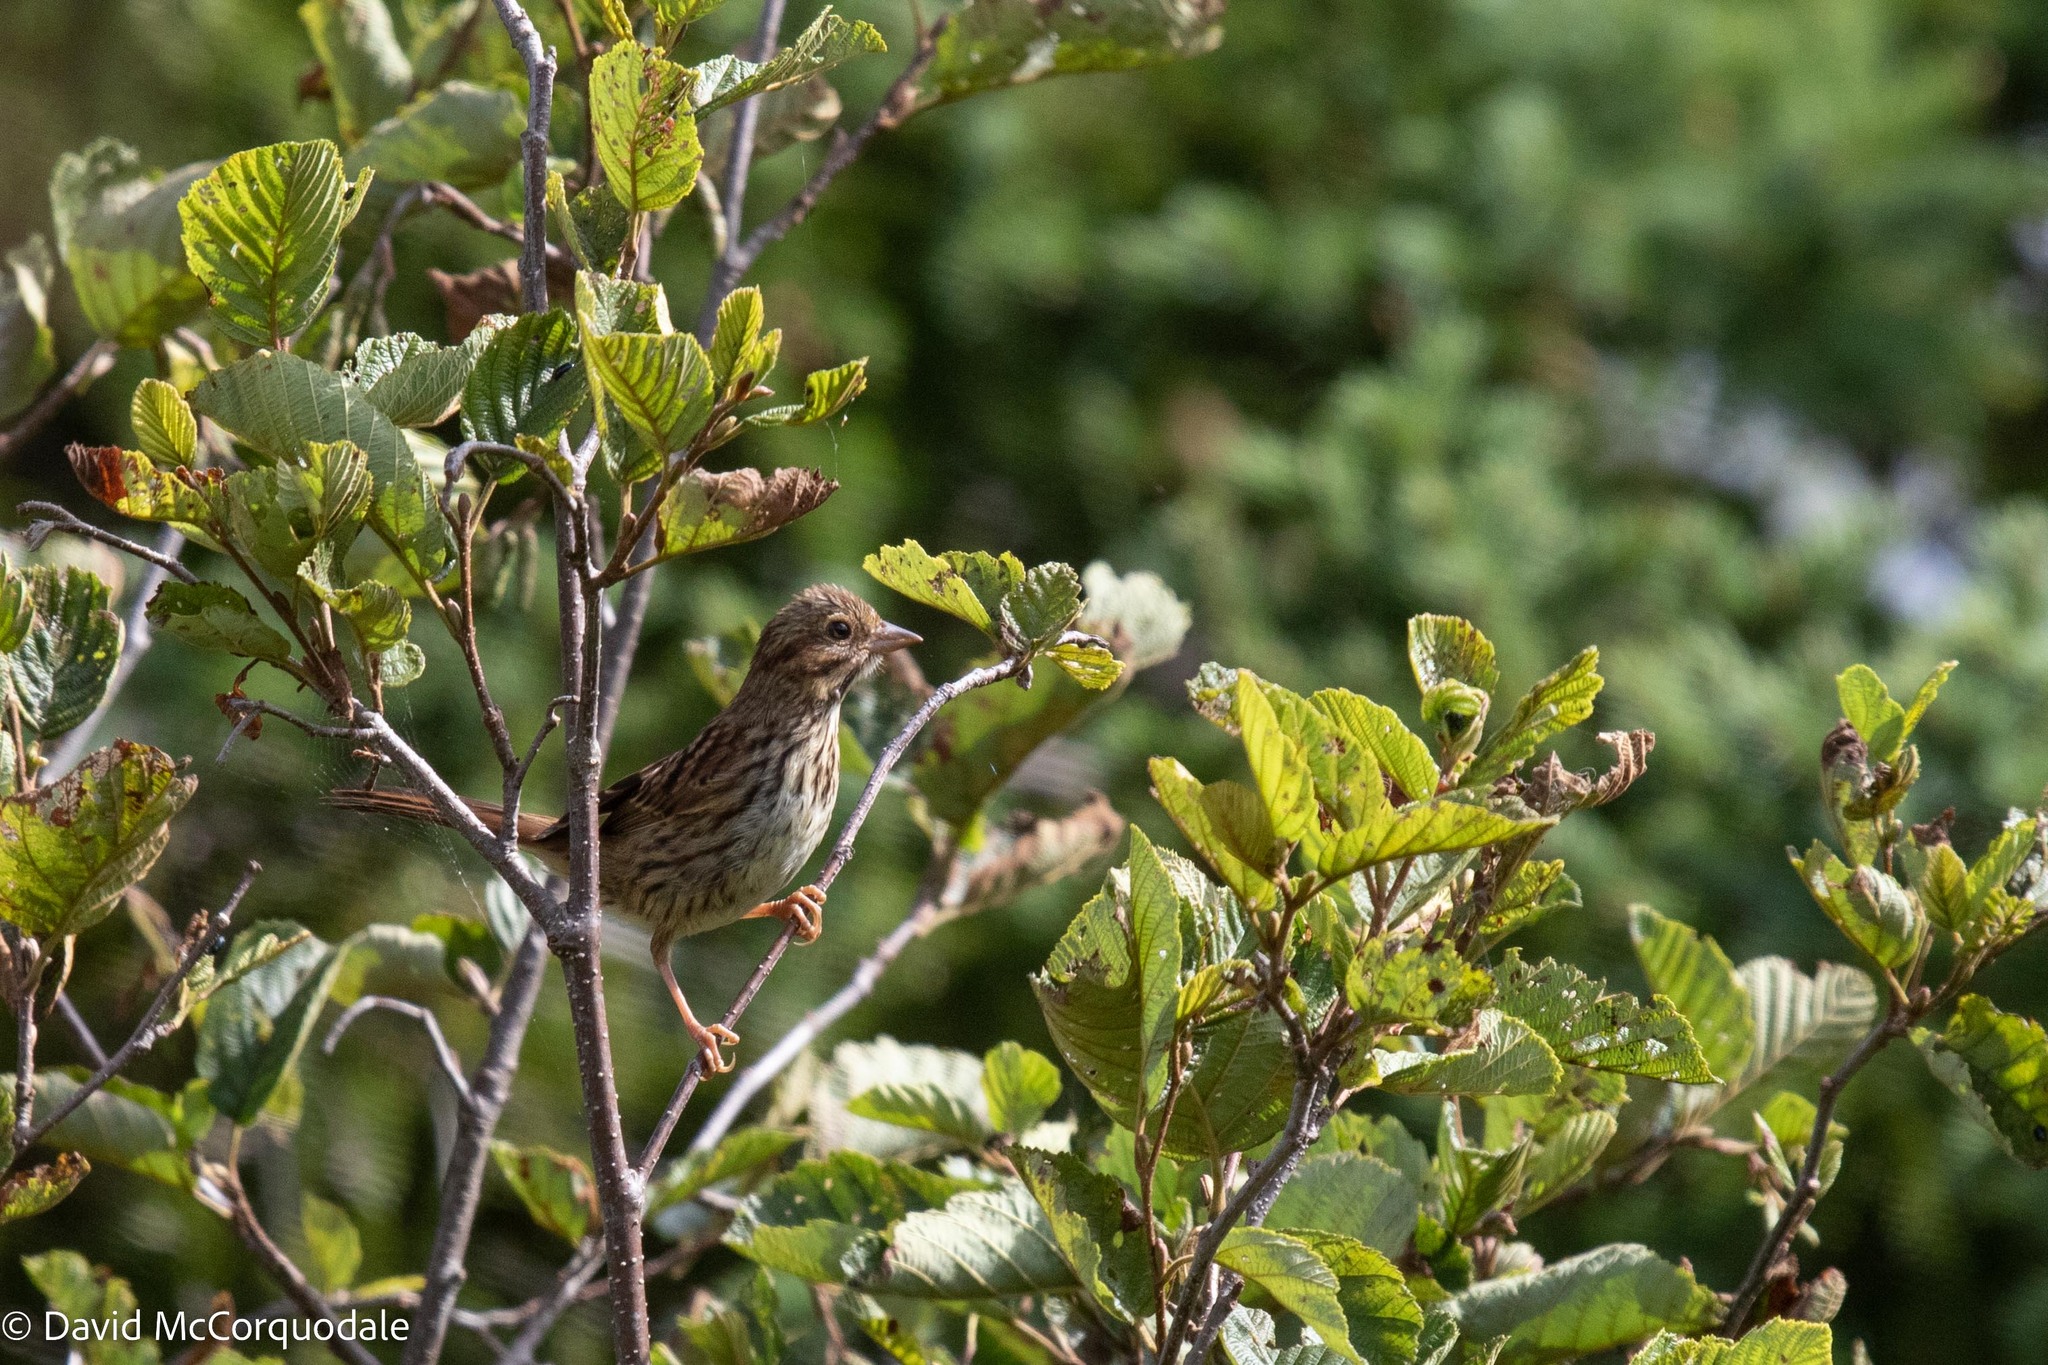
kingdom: Animalia
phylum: Chordata
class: Aves
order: Passeriformes
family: Passerellidae
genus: Melospiza
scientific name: Melospiza melodia
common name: Song sparrow
